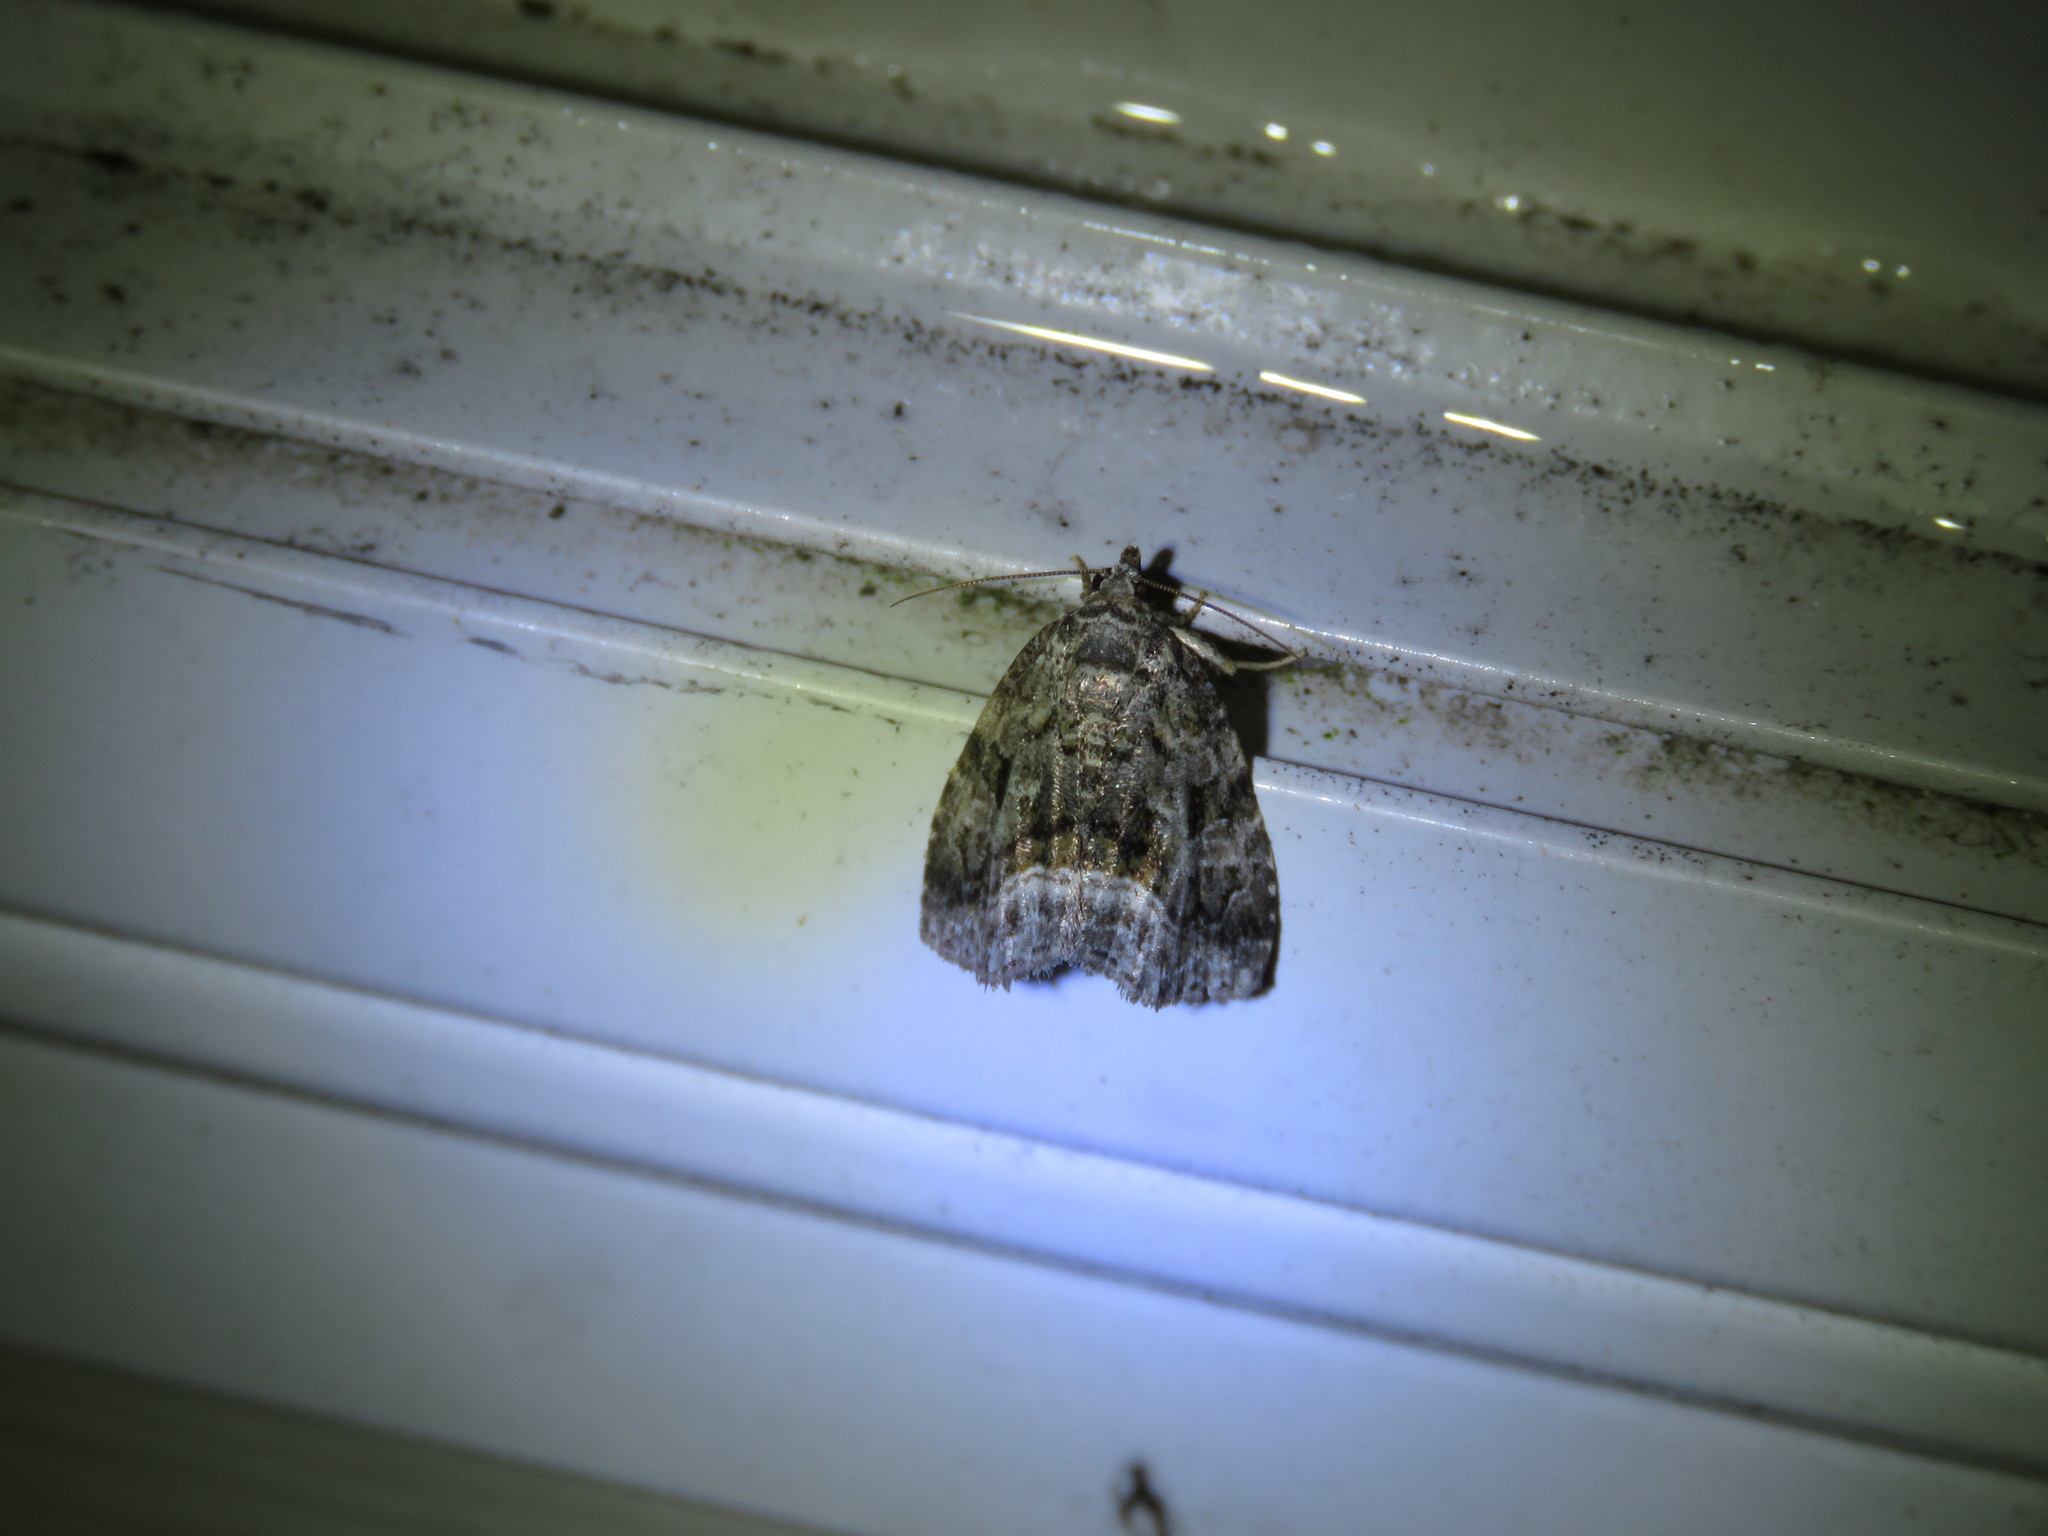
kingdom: Animalia
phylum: Arthropoda
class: Insecta
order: Lepidoptera
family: Noctuidae
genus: Protodeltote
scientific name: Protodeltote muscosula
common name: Large mossy glyph
